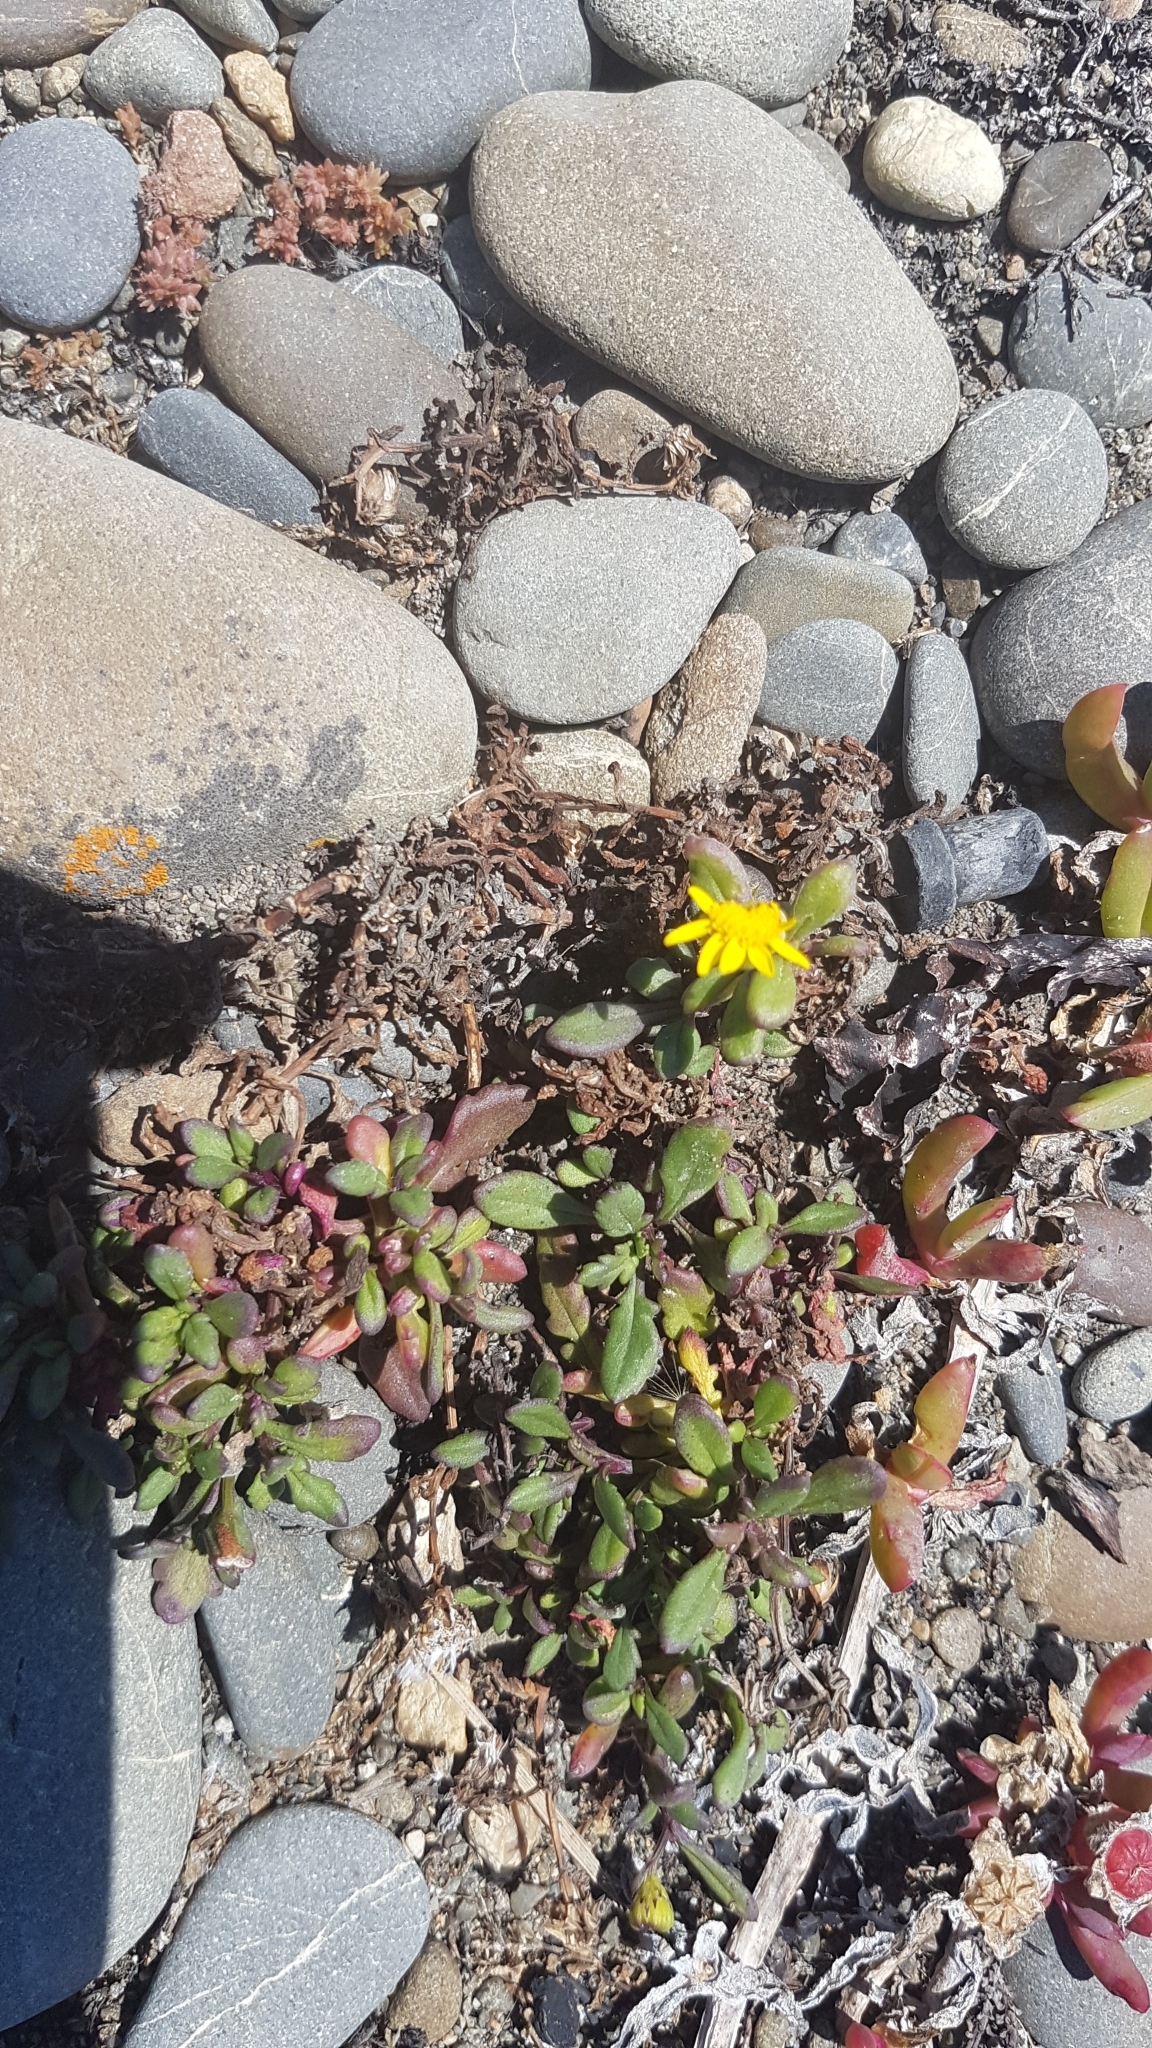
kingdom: Plantae
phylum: Tracheophyta
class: Magnoliopsida
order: Asterales
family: Asteraceae
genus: Senecio
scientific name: Senecio lautus
